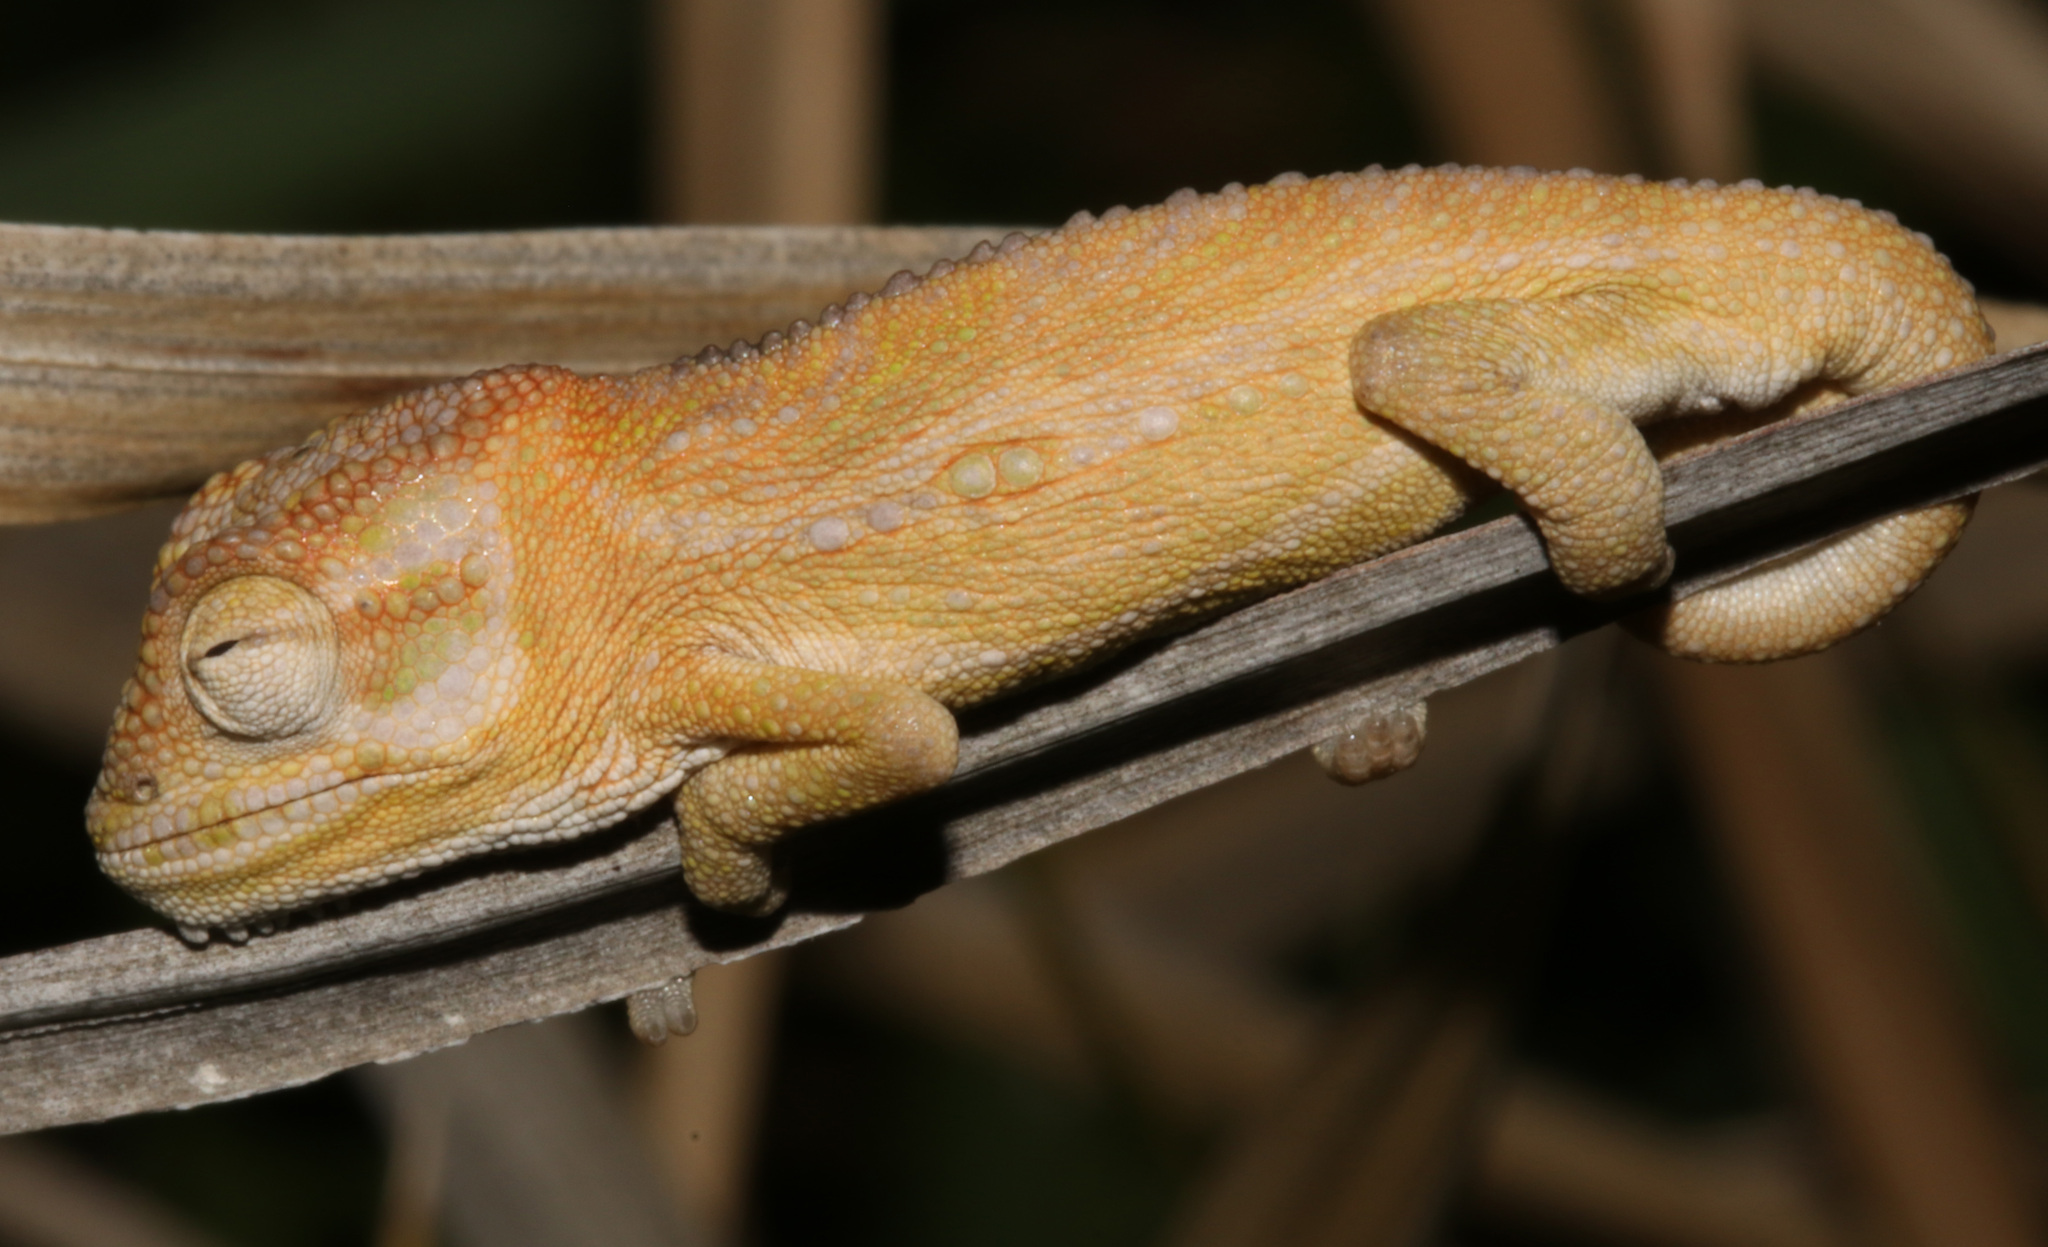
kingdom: Animalia
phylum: Chordata
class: Squamata
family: Chamaeleonidae
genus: Bradypodion
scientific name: Bradypodion pumilum
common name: Cape dwarf chameleon
